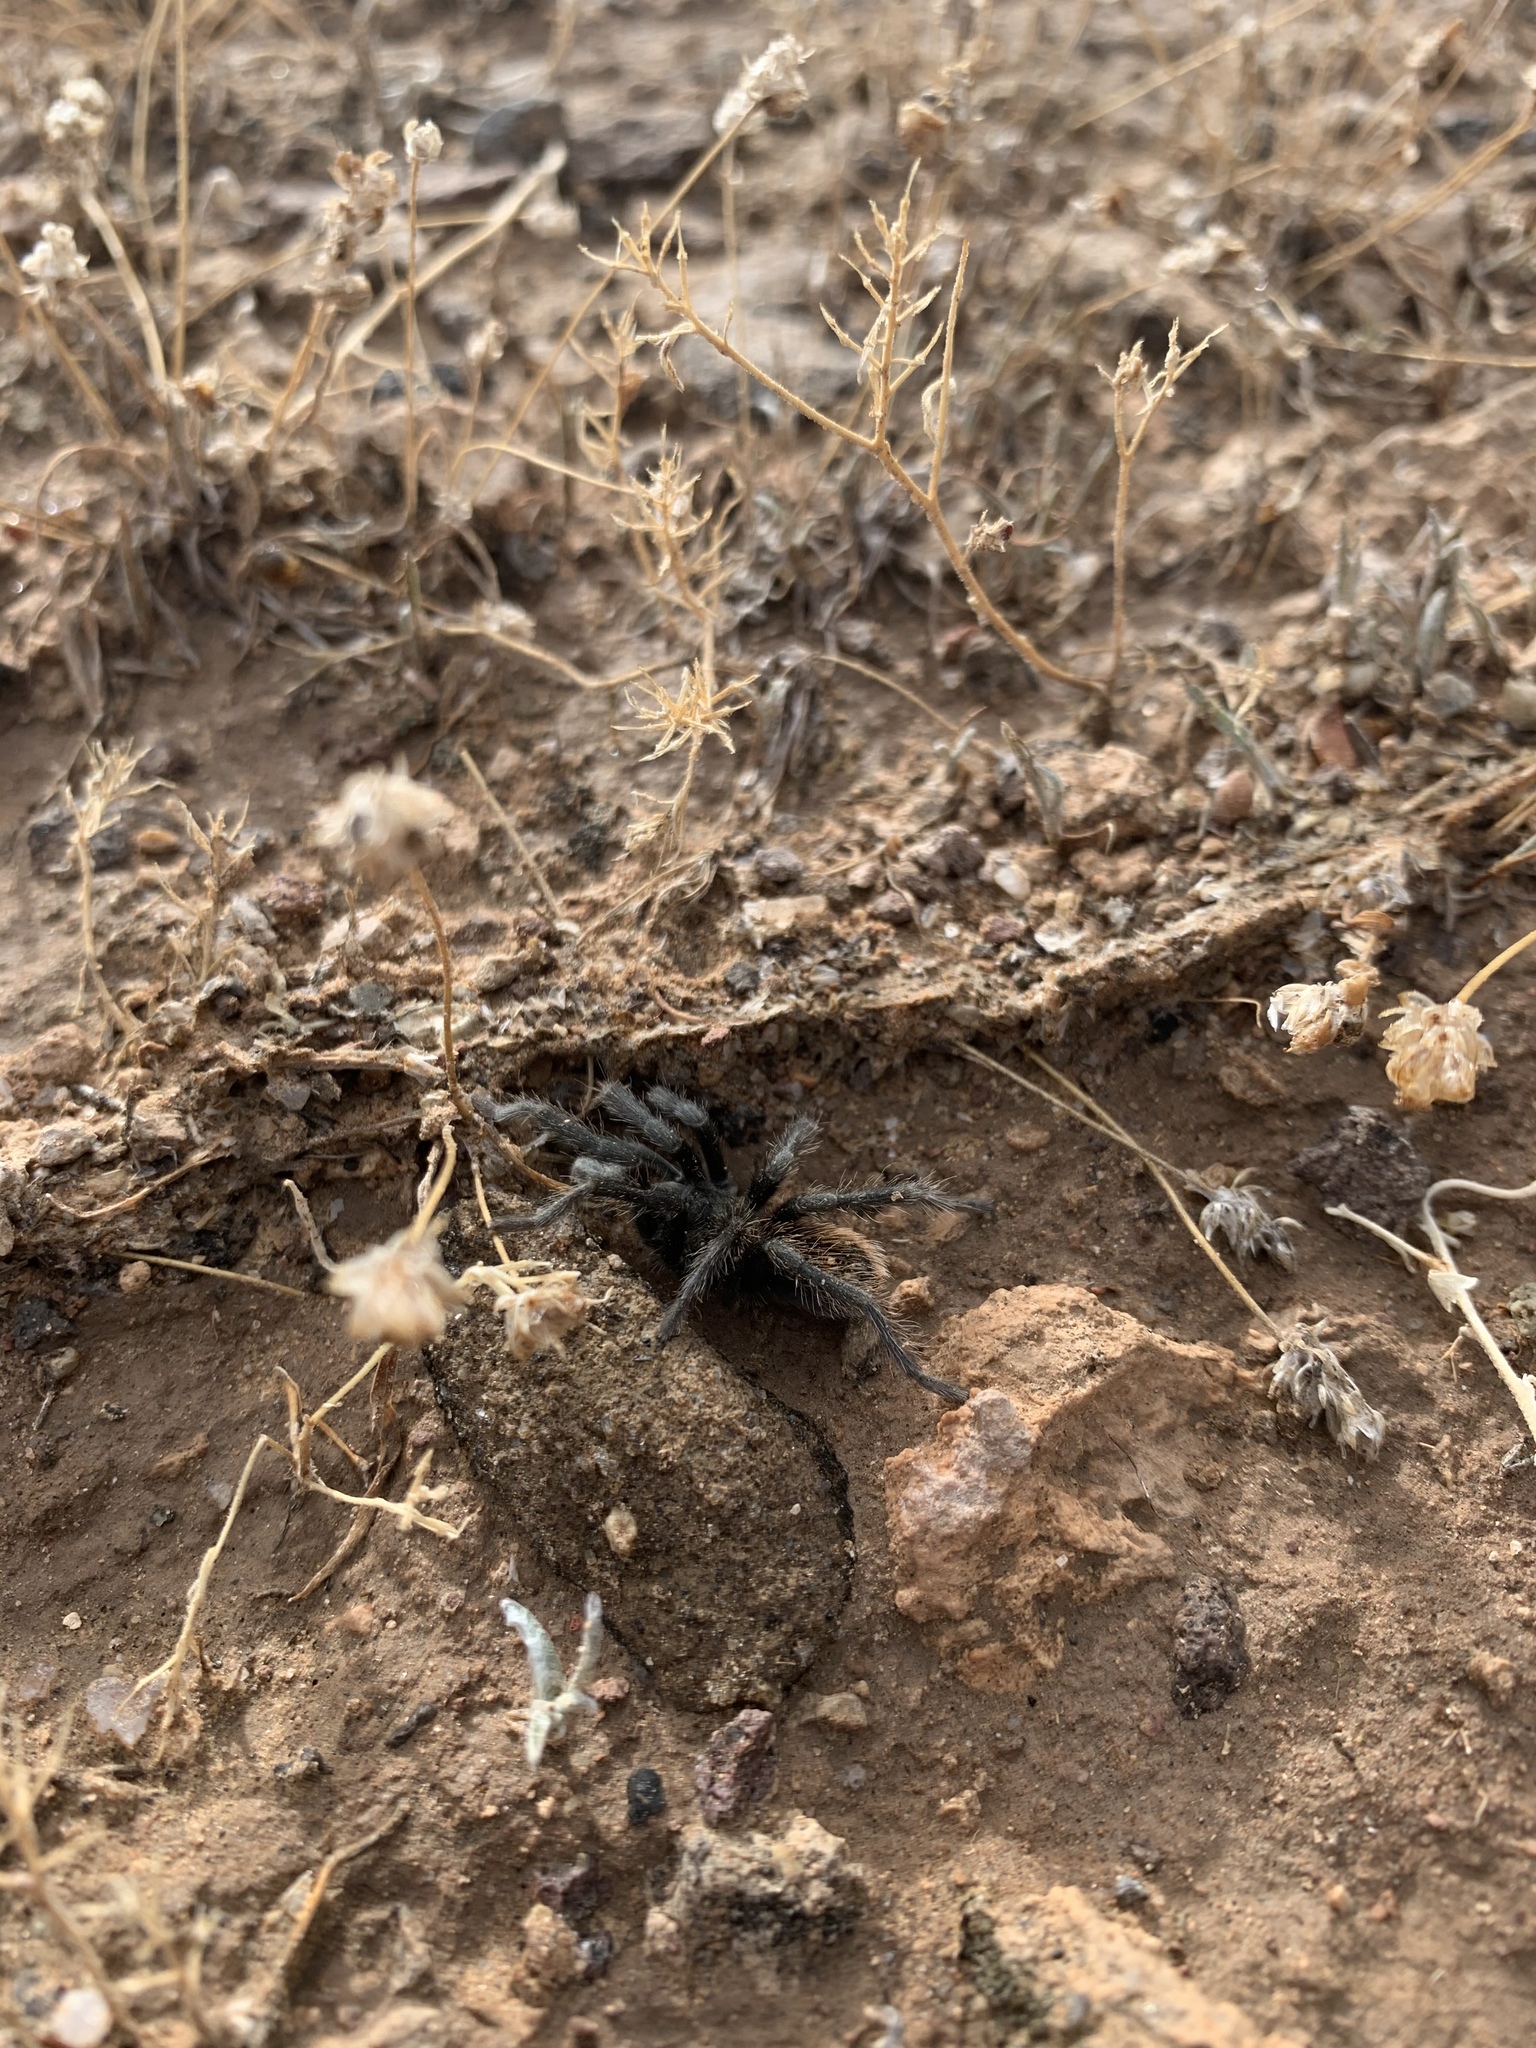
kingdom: Animalia
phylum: Arthropoda
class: Arachnida
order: Araneae
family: Theraphosidae
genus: Aphonopelma
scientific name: Aphonopelma prenticei
